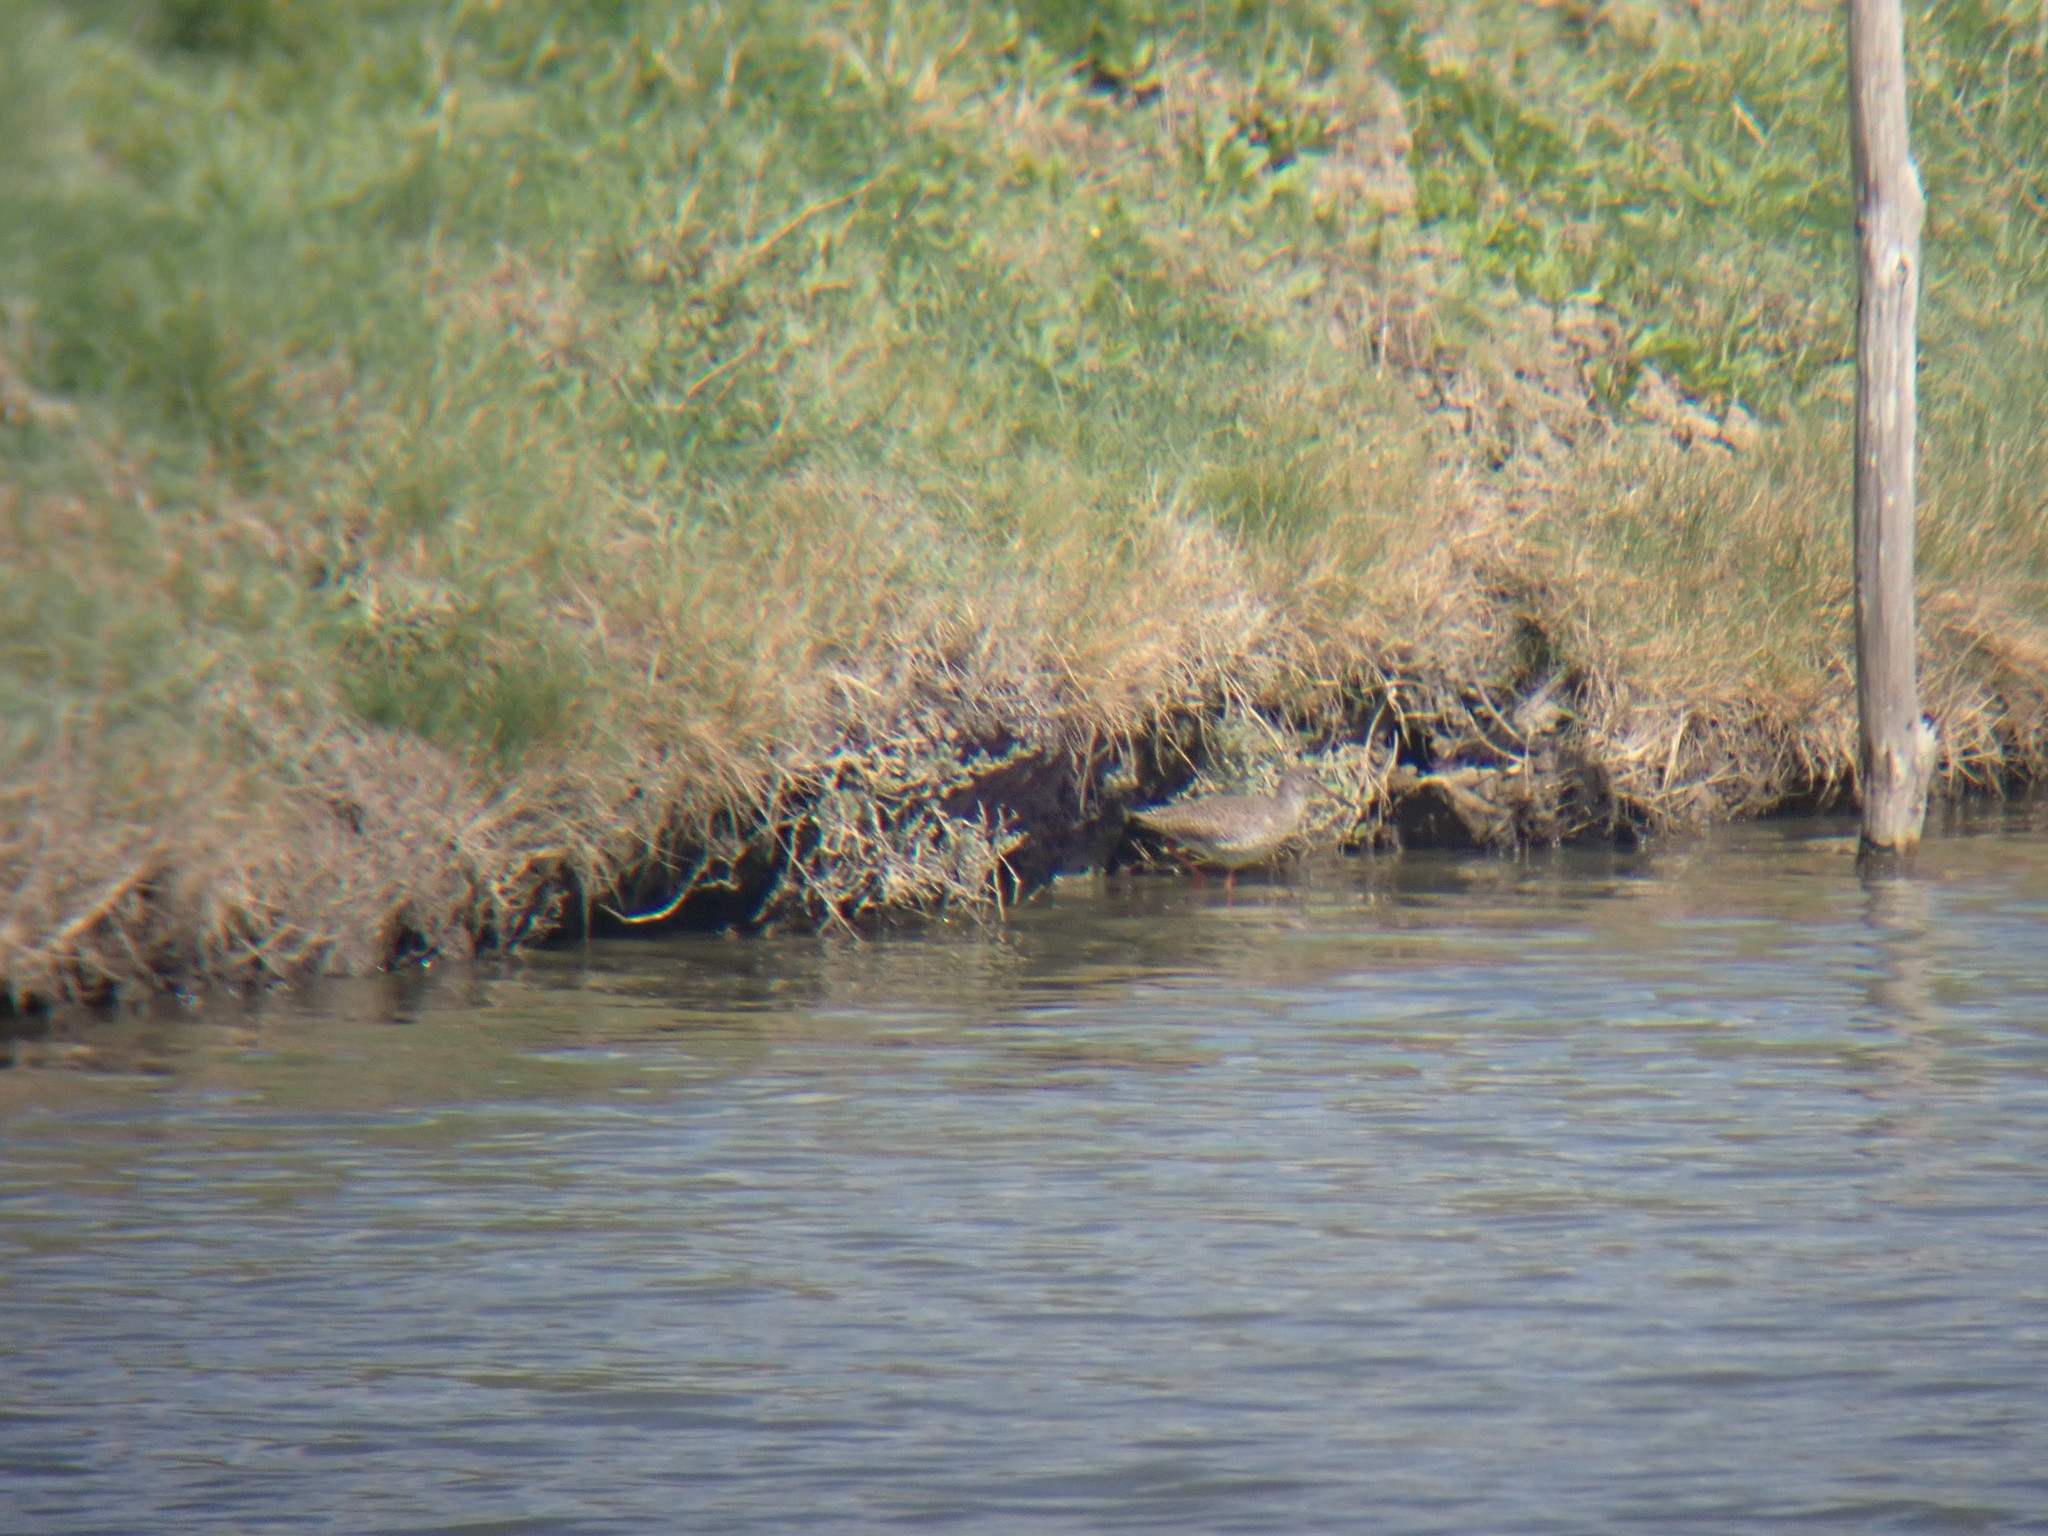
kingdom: Animalia
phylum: Chordata
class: Aves
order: Charadriiformes
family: Scolopacidae
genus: Tringa
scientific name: Tringa totanus
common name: Common redshank
